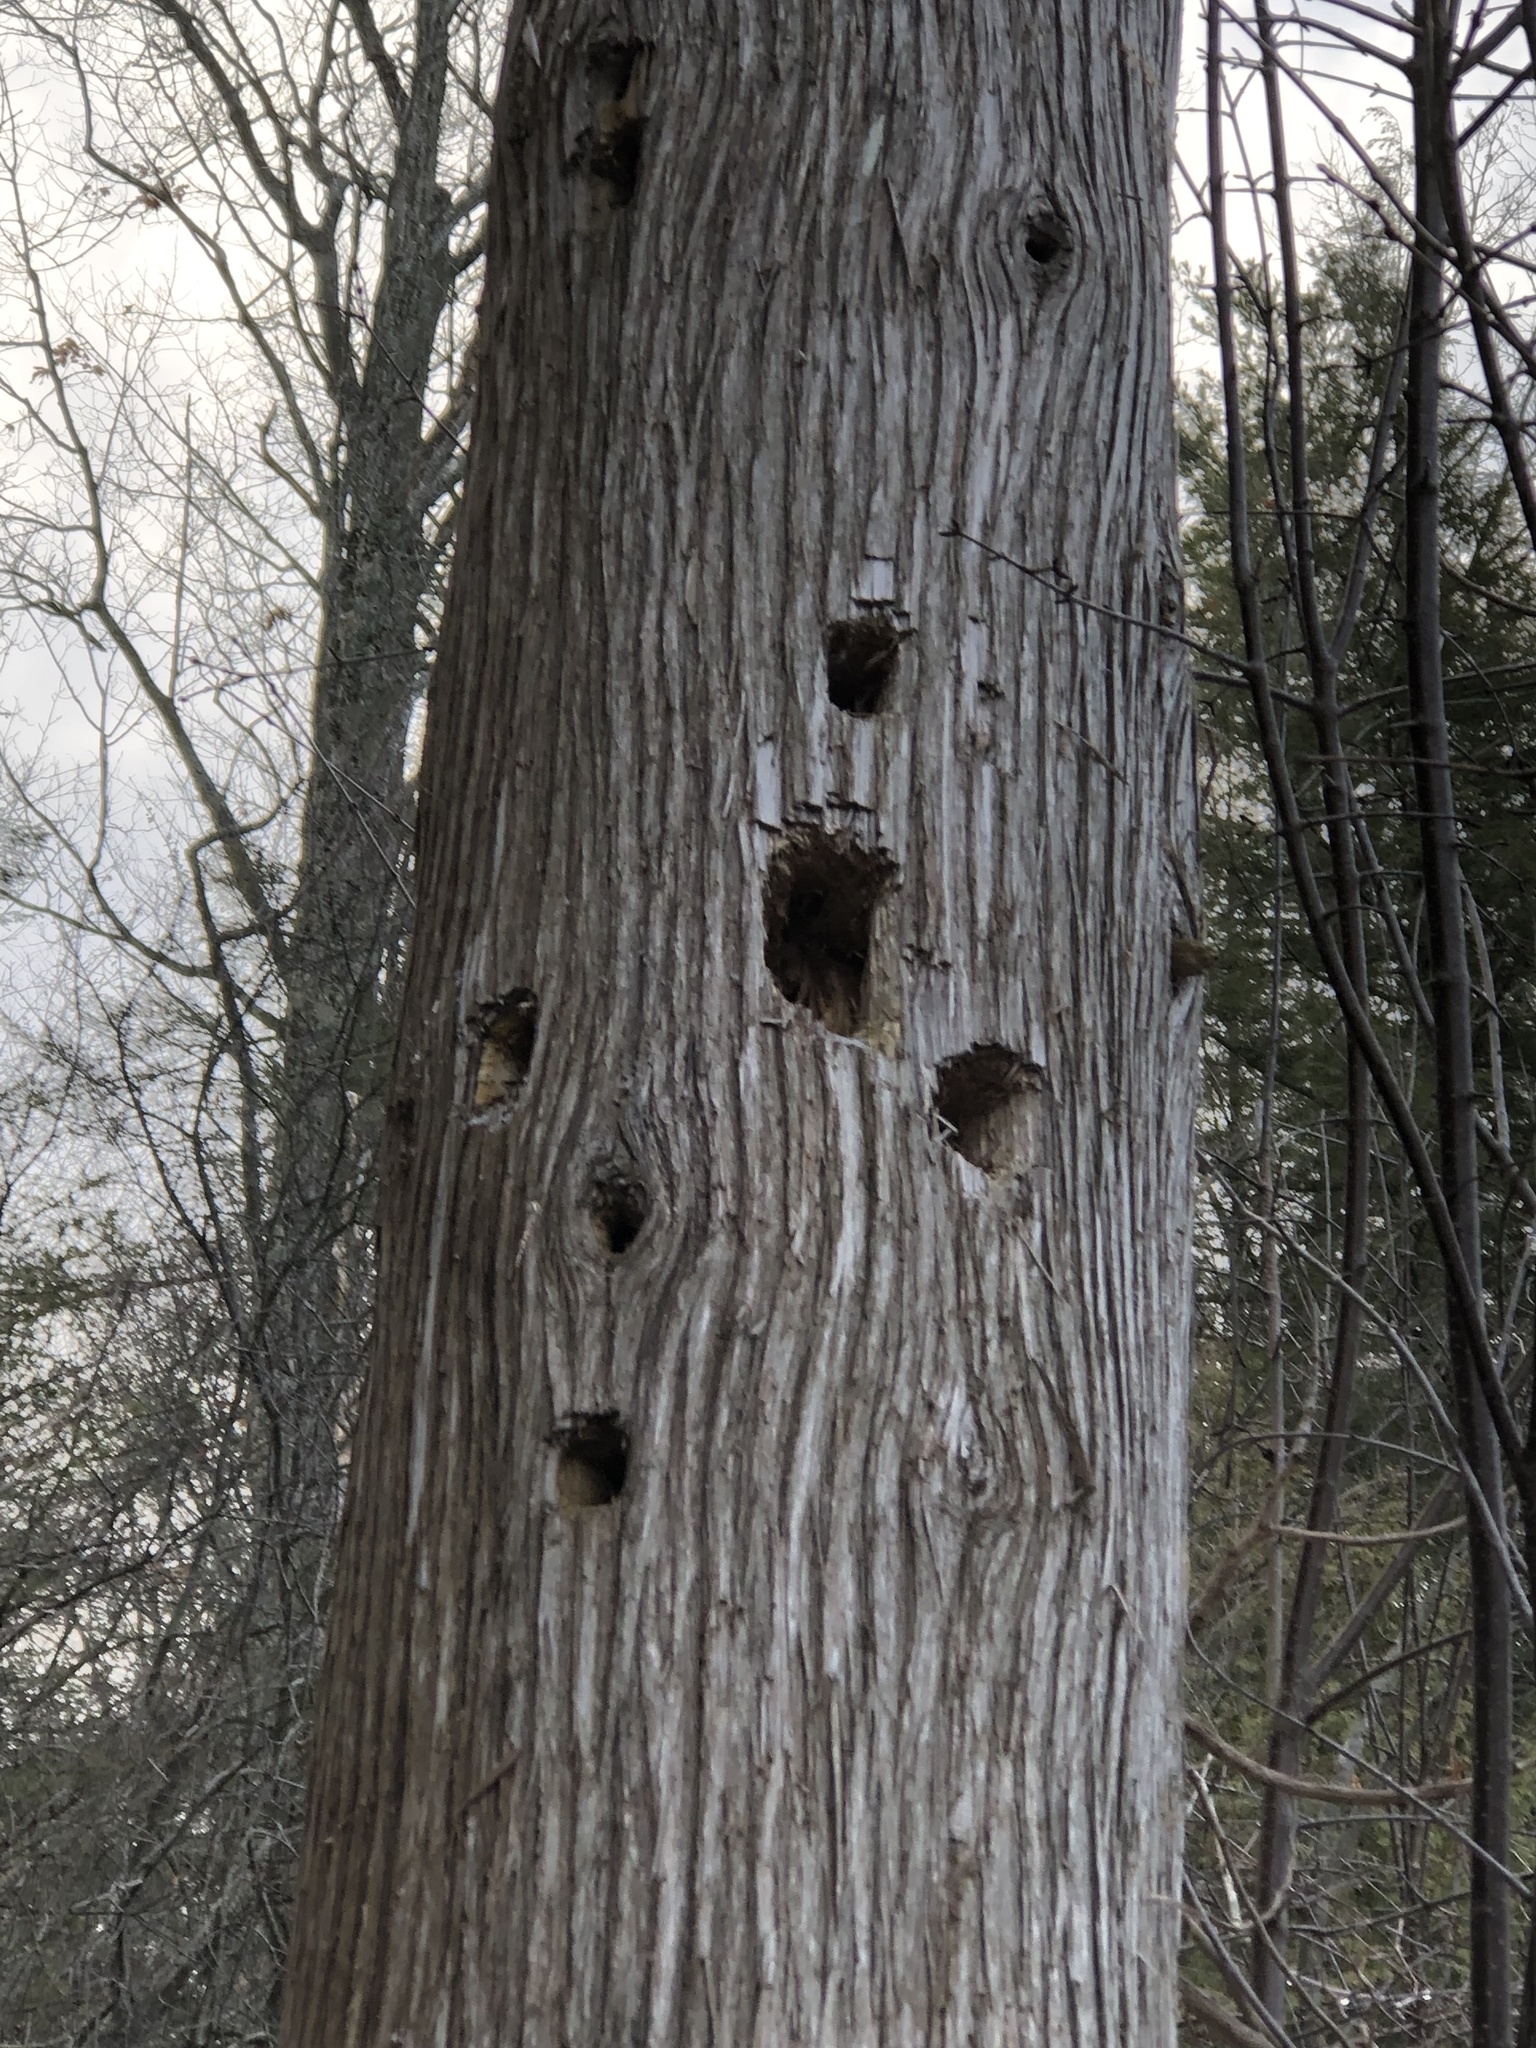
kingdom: Plantae
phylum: Tracheophyta
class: Pinopsida
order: Pinales
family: Cupressaceae
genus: Thuja
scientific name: Thuja occidentalis
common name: Northern white-cedar
